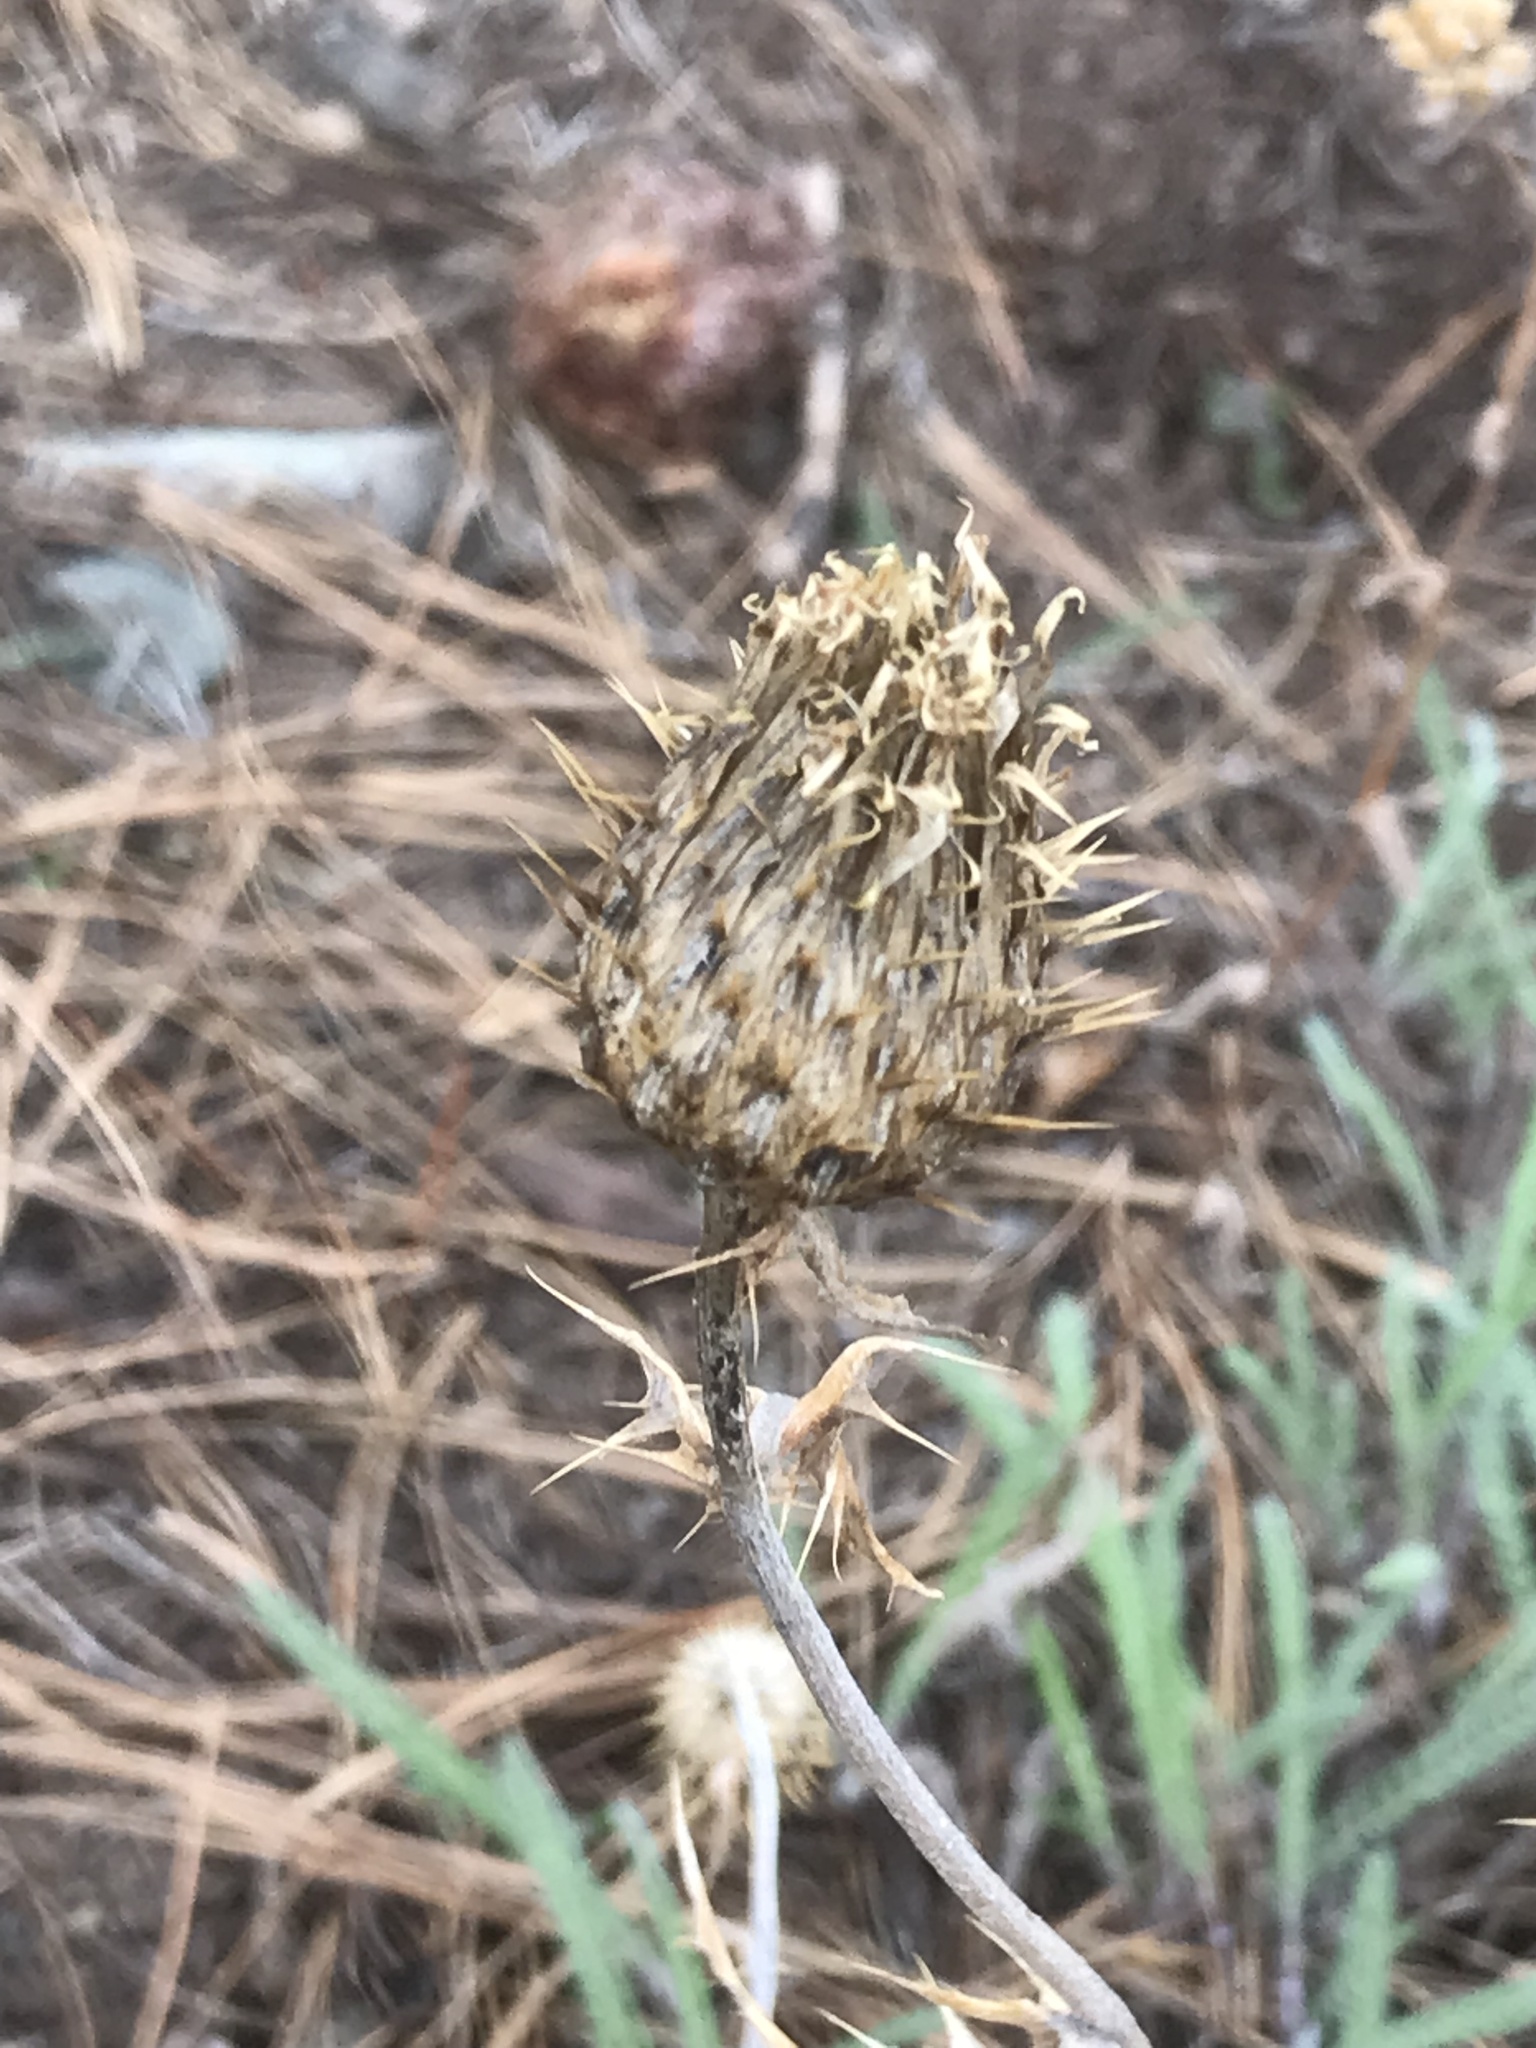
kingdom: Plantae
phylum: Tracheophyta
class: Magnoliopsida
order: Asterales
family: Asteraceae
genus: Cirsium
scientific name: Cirsium undulatum
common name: Pasture thistle
